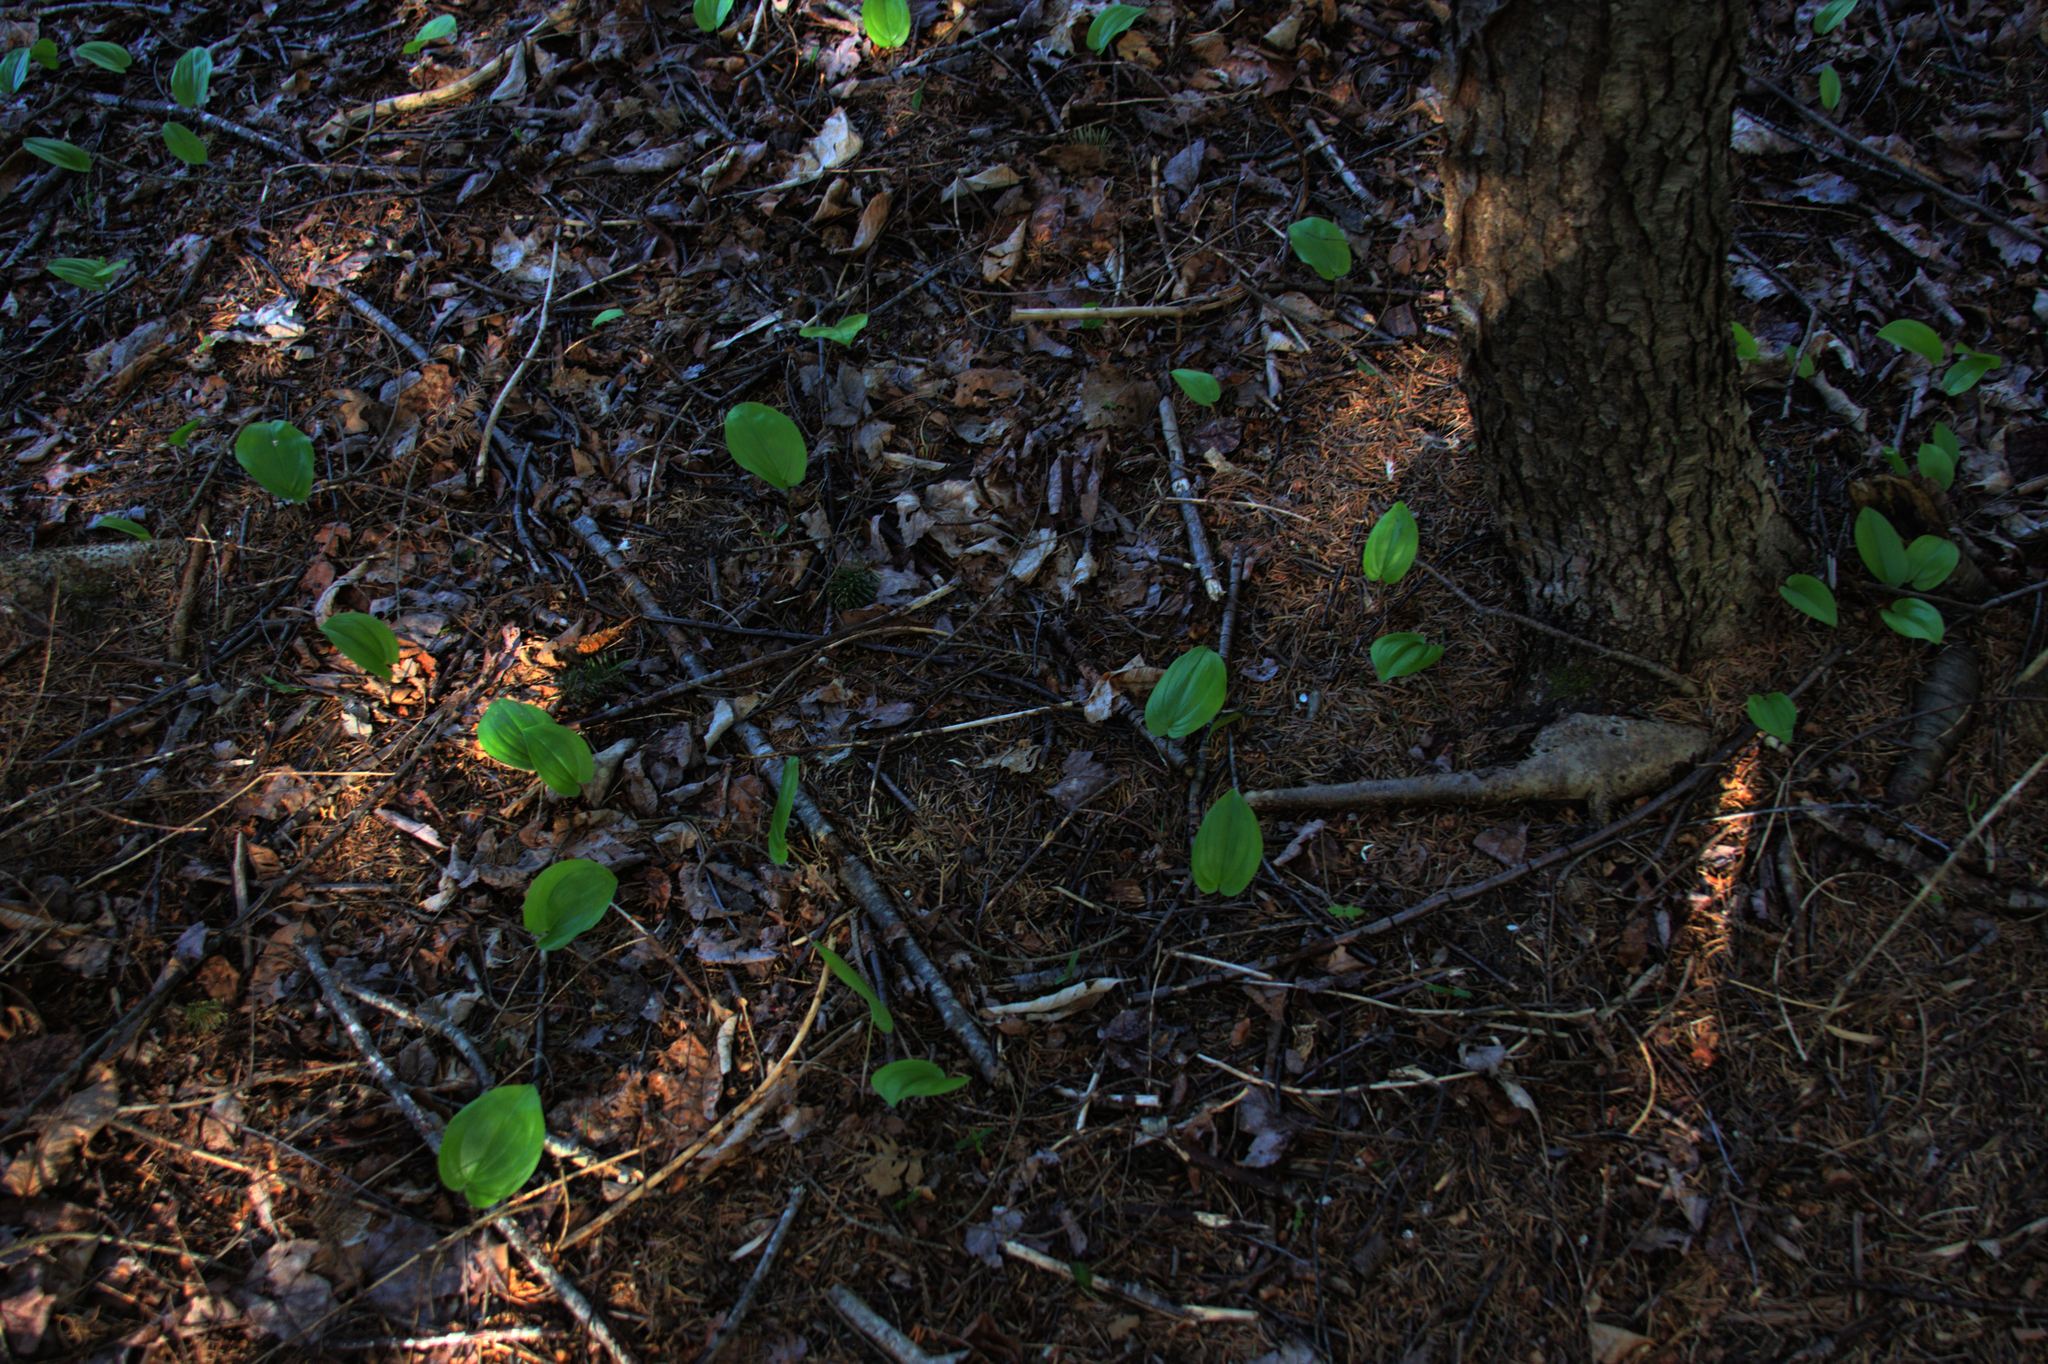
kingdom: Plantae
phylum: Tracheophyta
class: Liliopsida
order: Asparagales
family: Asparagaceae
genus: Maianthemum
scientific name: Maianthemum canadense
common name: False lily-of-the-valley
